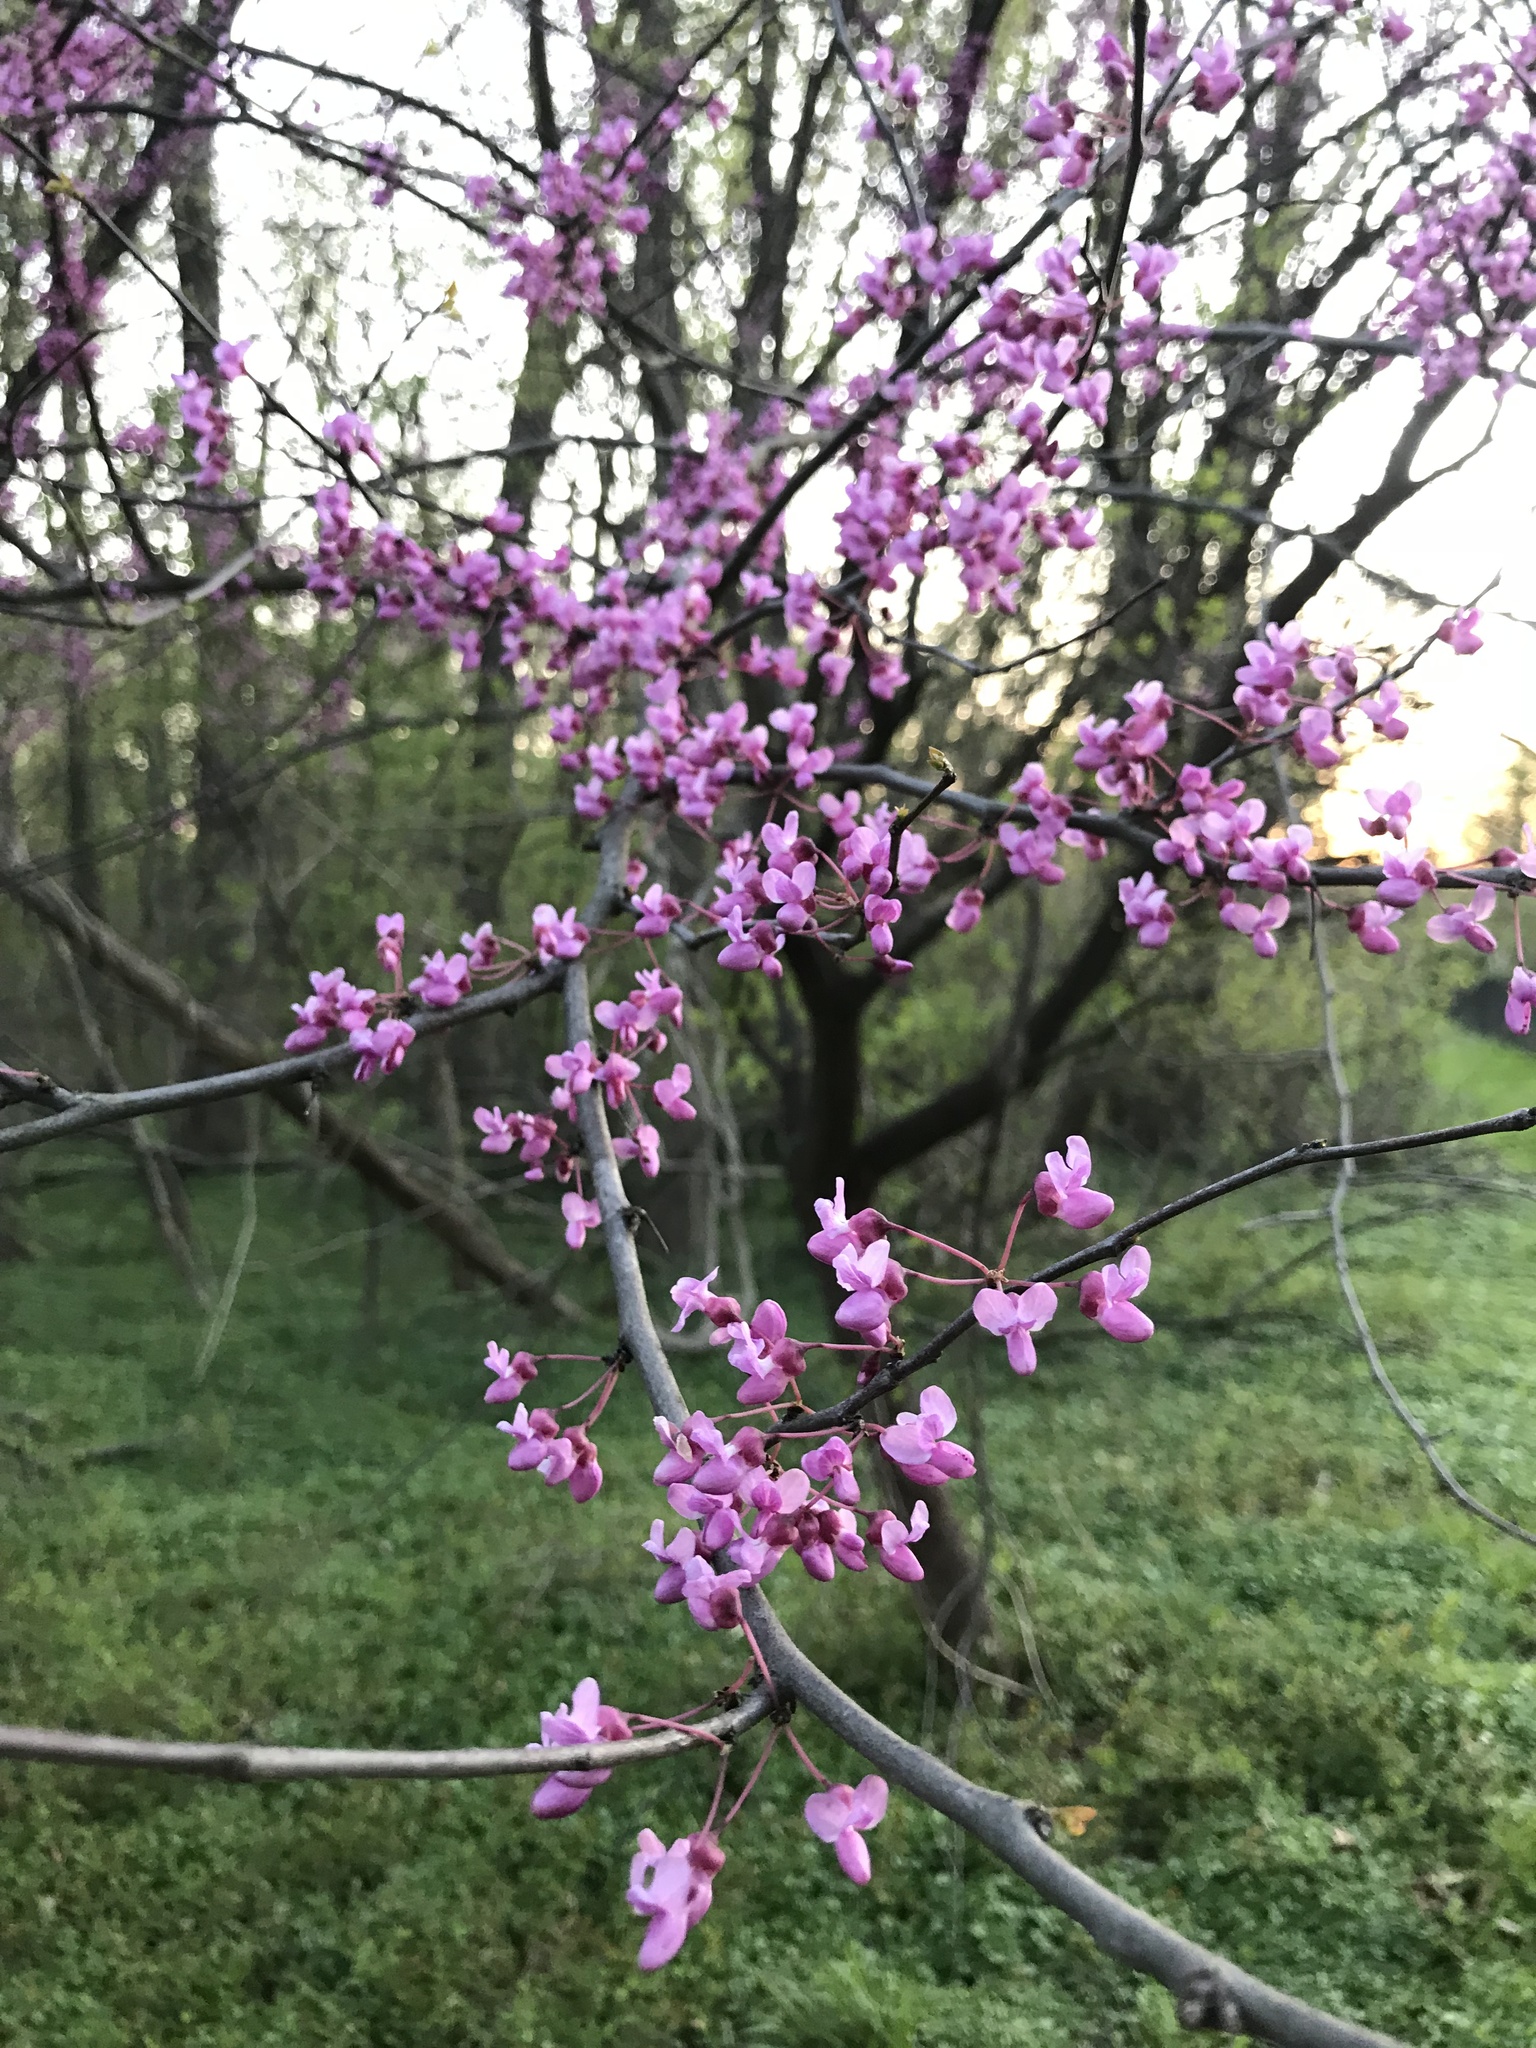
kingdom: Plantae
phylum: Tracheophyta
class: Magnoliopsida
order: Fabales
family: Fabaceae
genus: Cercis
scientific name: Cercis canadensis
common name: Eastern redbud
